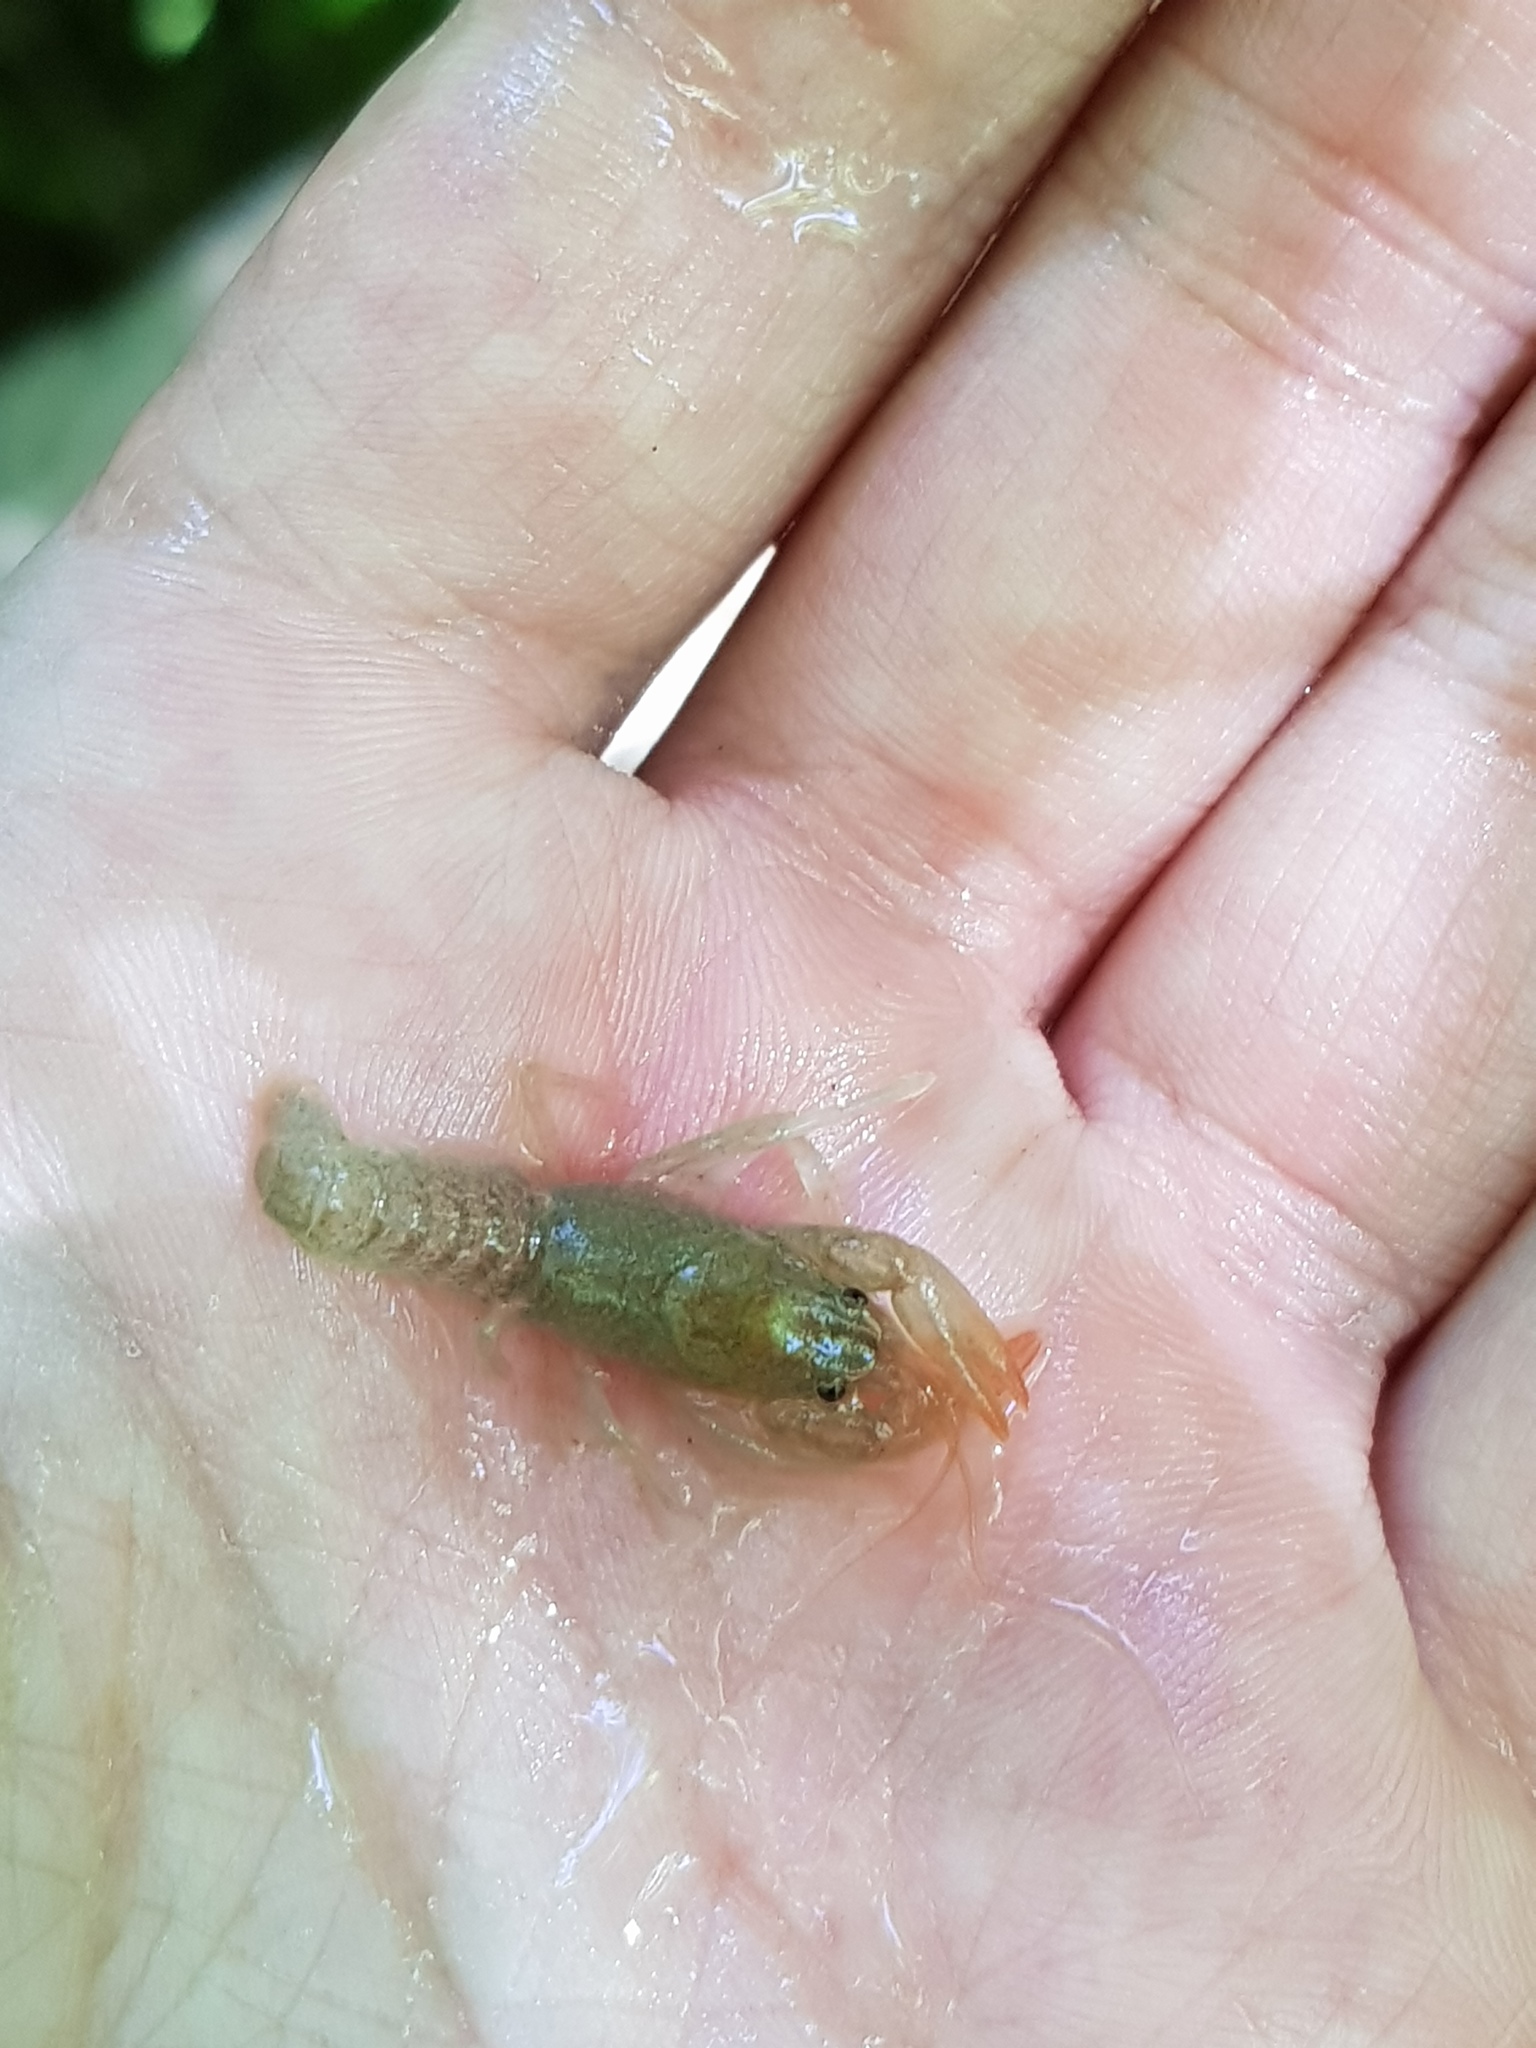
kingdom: Animalia
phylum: Arthropoda
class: Malacostraca
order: Decapoda
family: Cambaridae
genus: Cambarus
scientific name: Cambarus bartonii
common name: Appalachian brook crayfish
